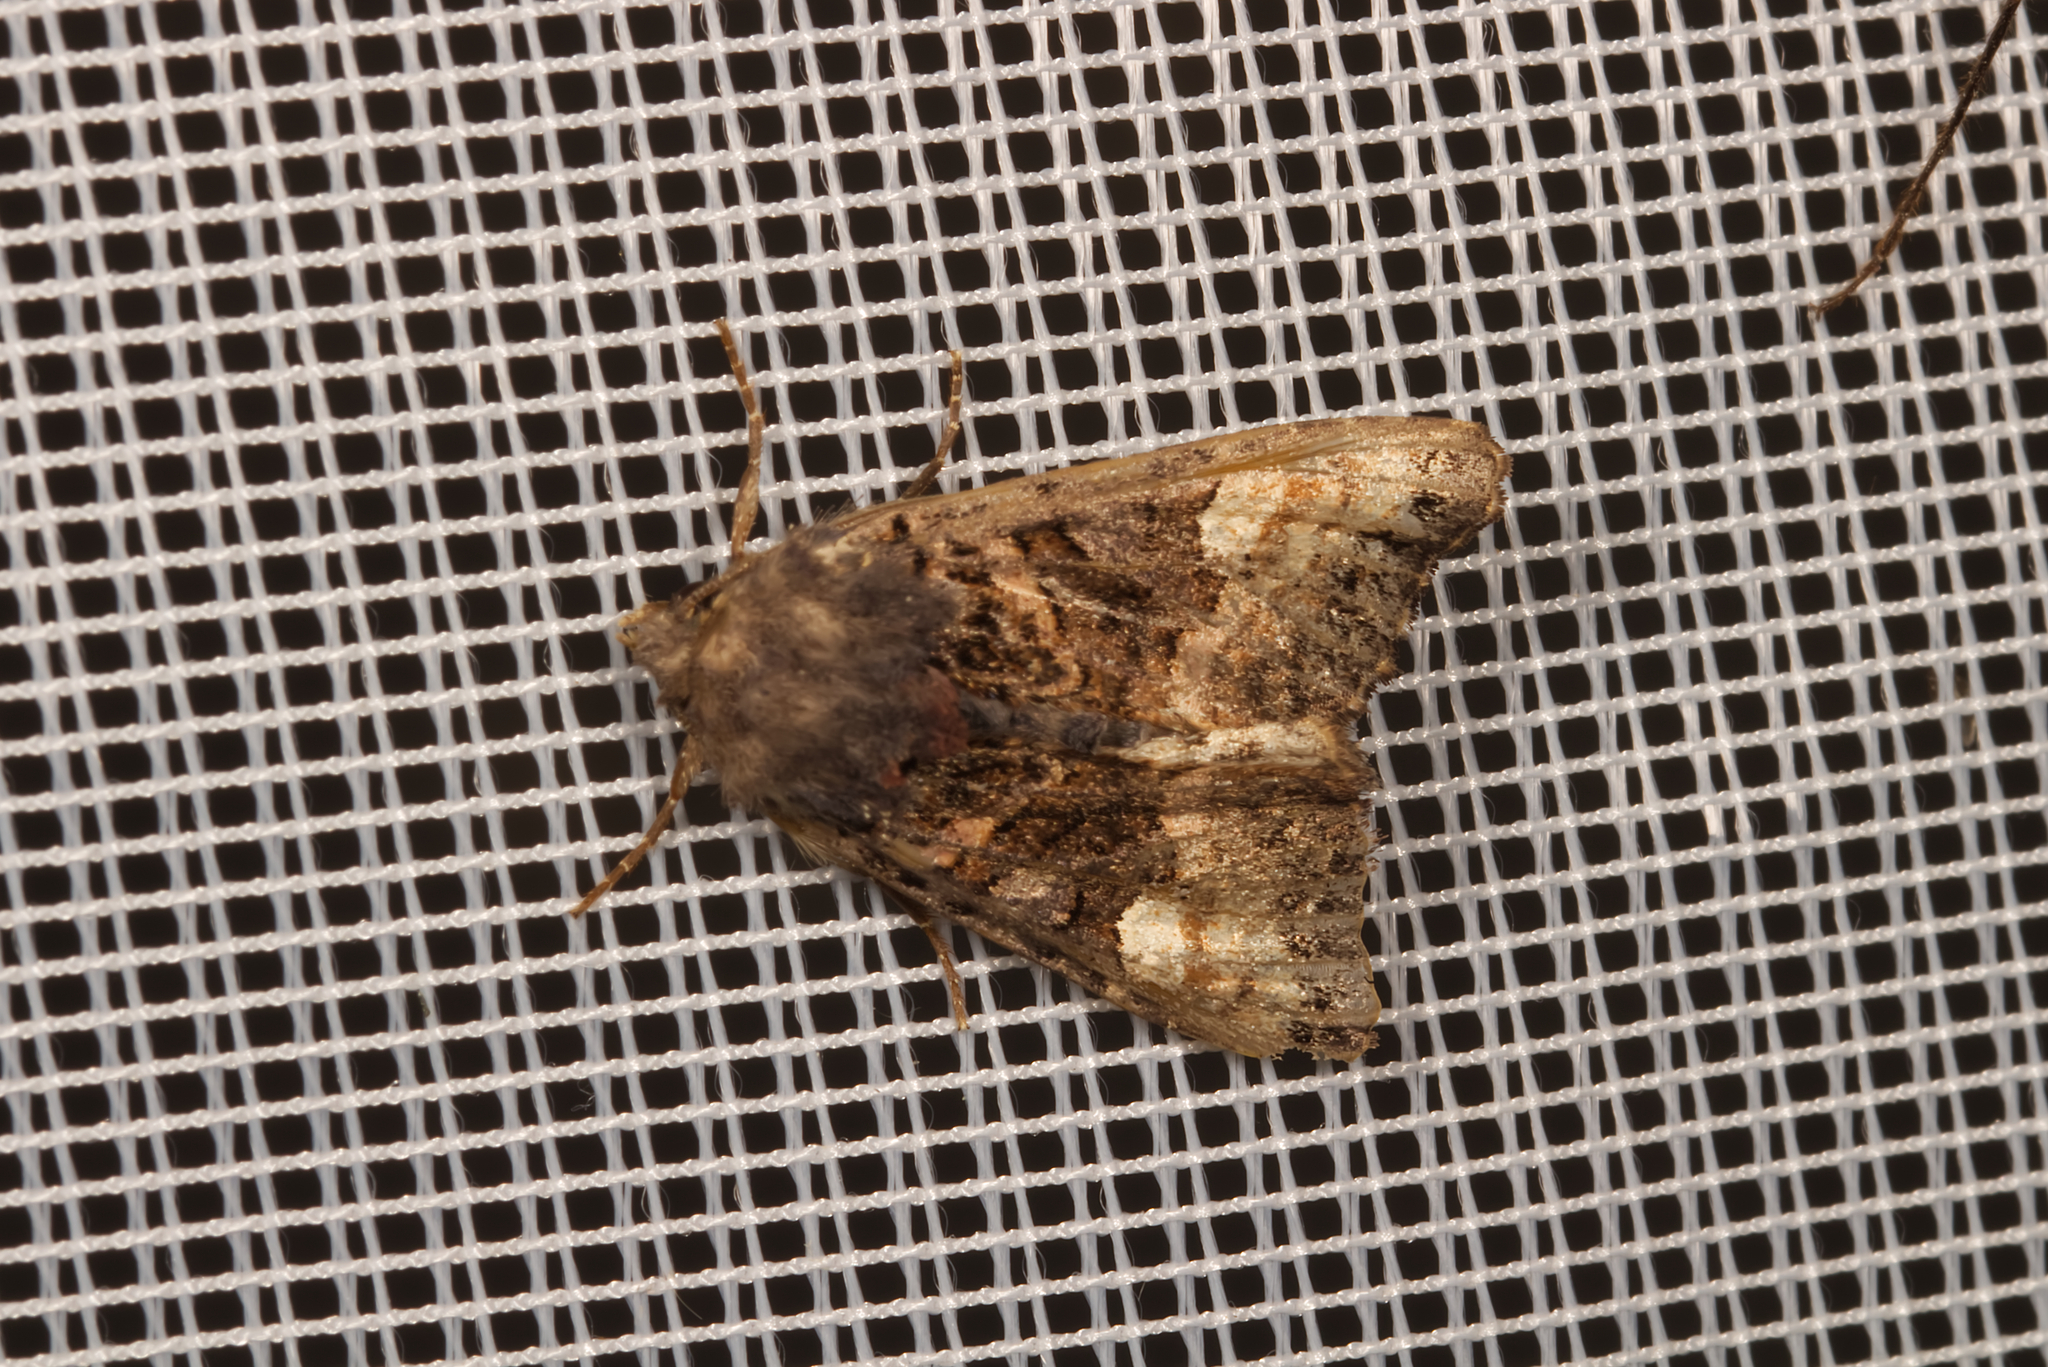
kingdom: Animalia
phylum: Arthropoda
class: Insecta
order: Lepidoptera
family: Noctuidae
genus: Euplexia
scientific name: Euplexia lucipara
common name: Small angle shades
